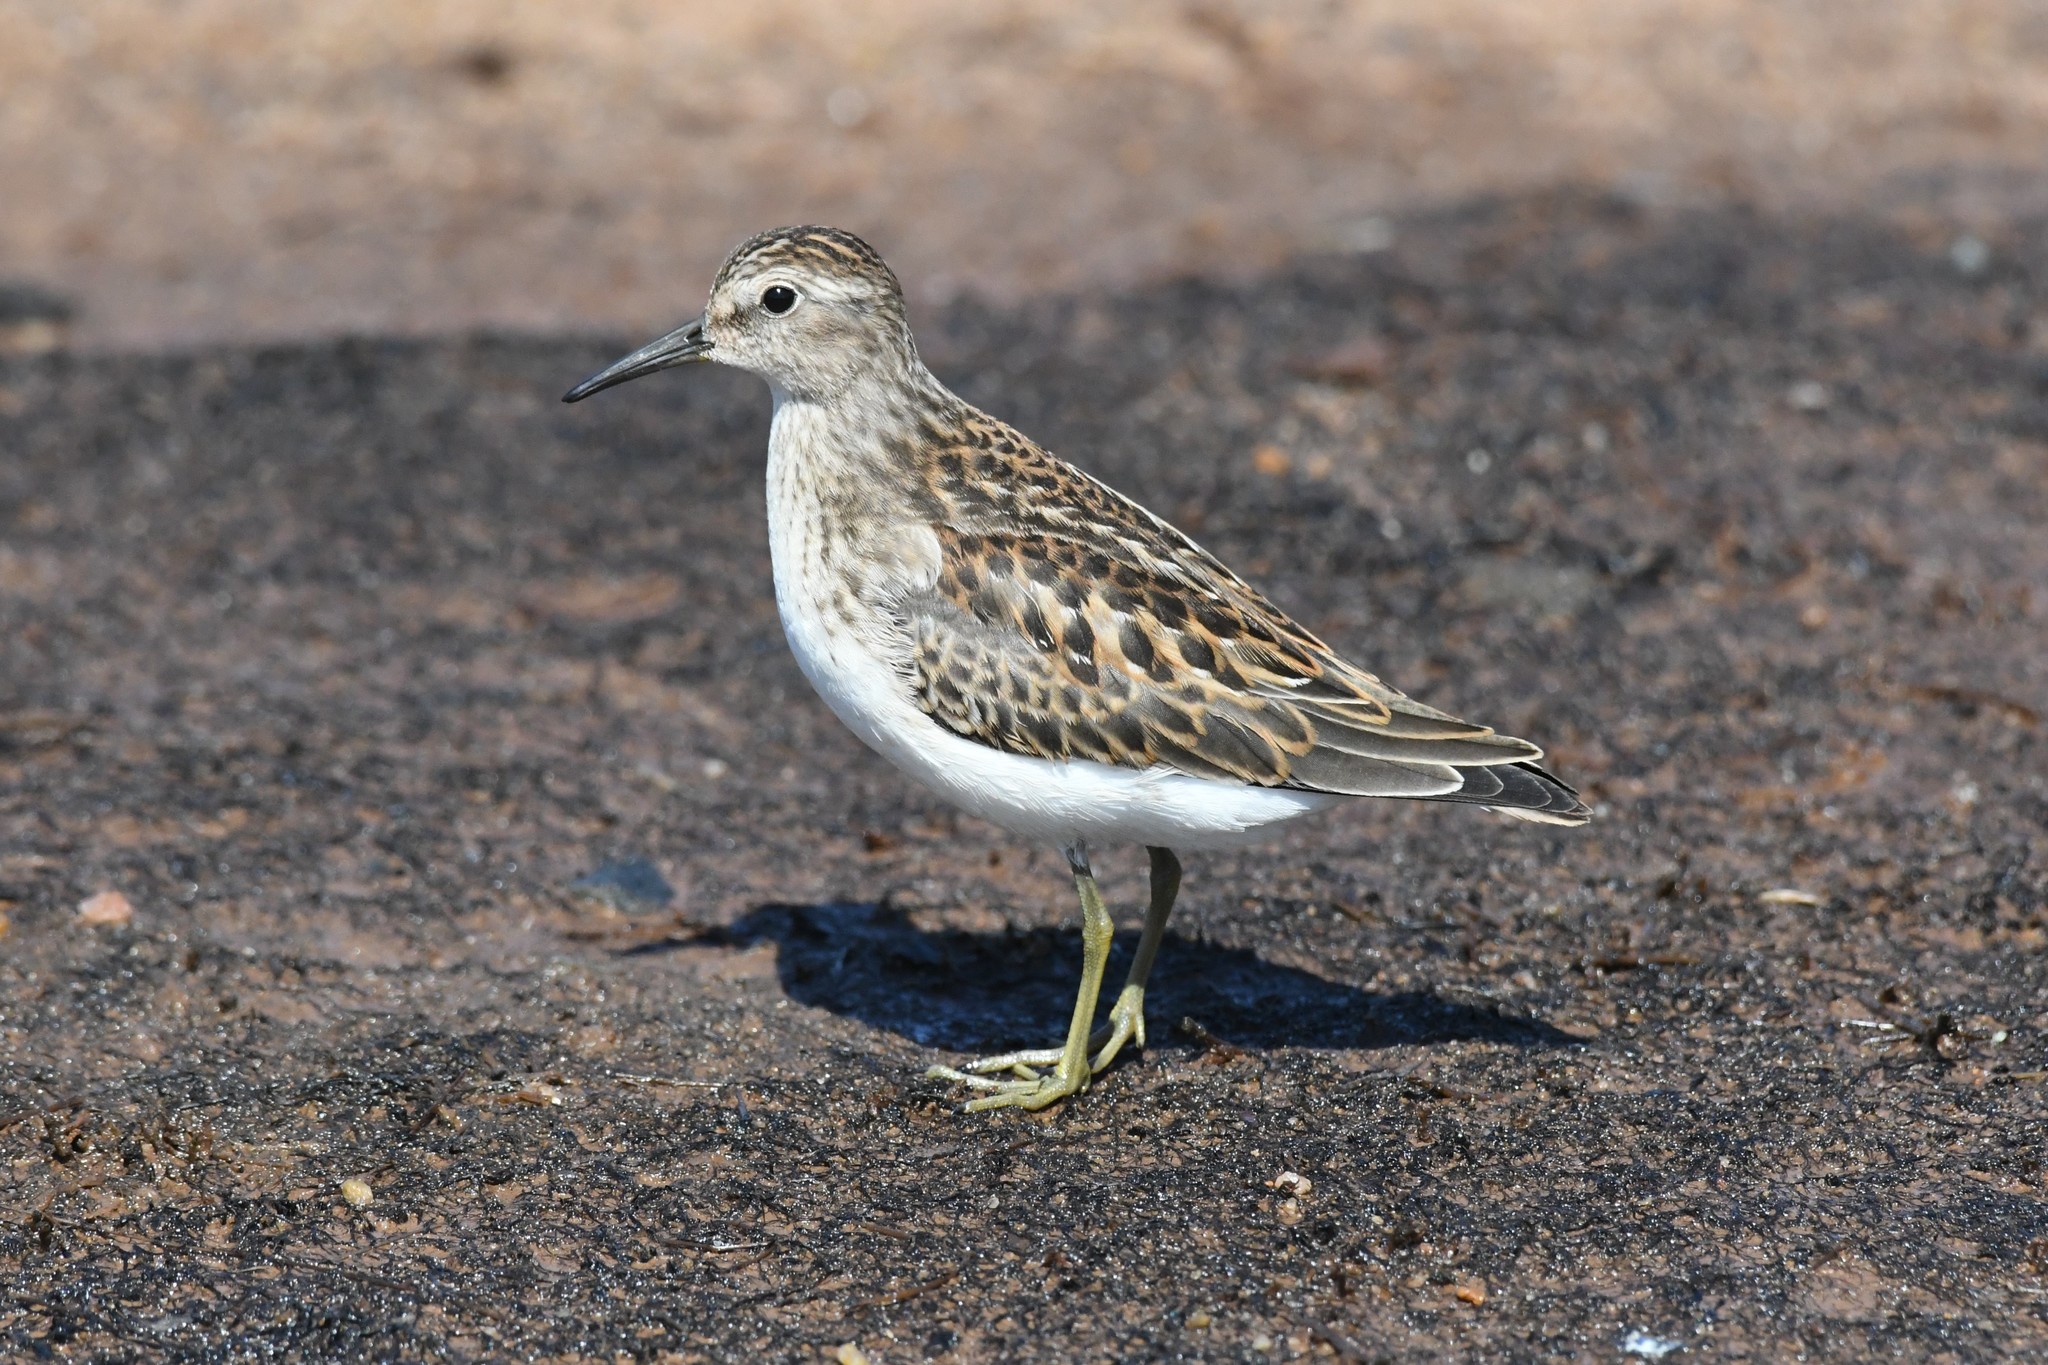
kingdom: Animalia
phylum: Chordata
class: Aves
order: Charadriiformes
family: Scolopacidae
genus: Calidris
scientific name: Calidris minutilla
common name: Least sandpiper
